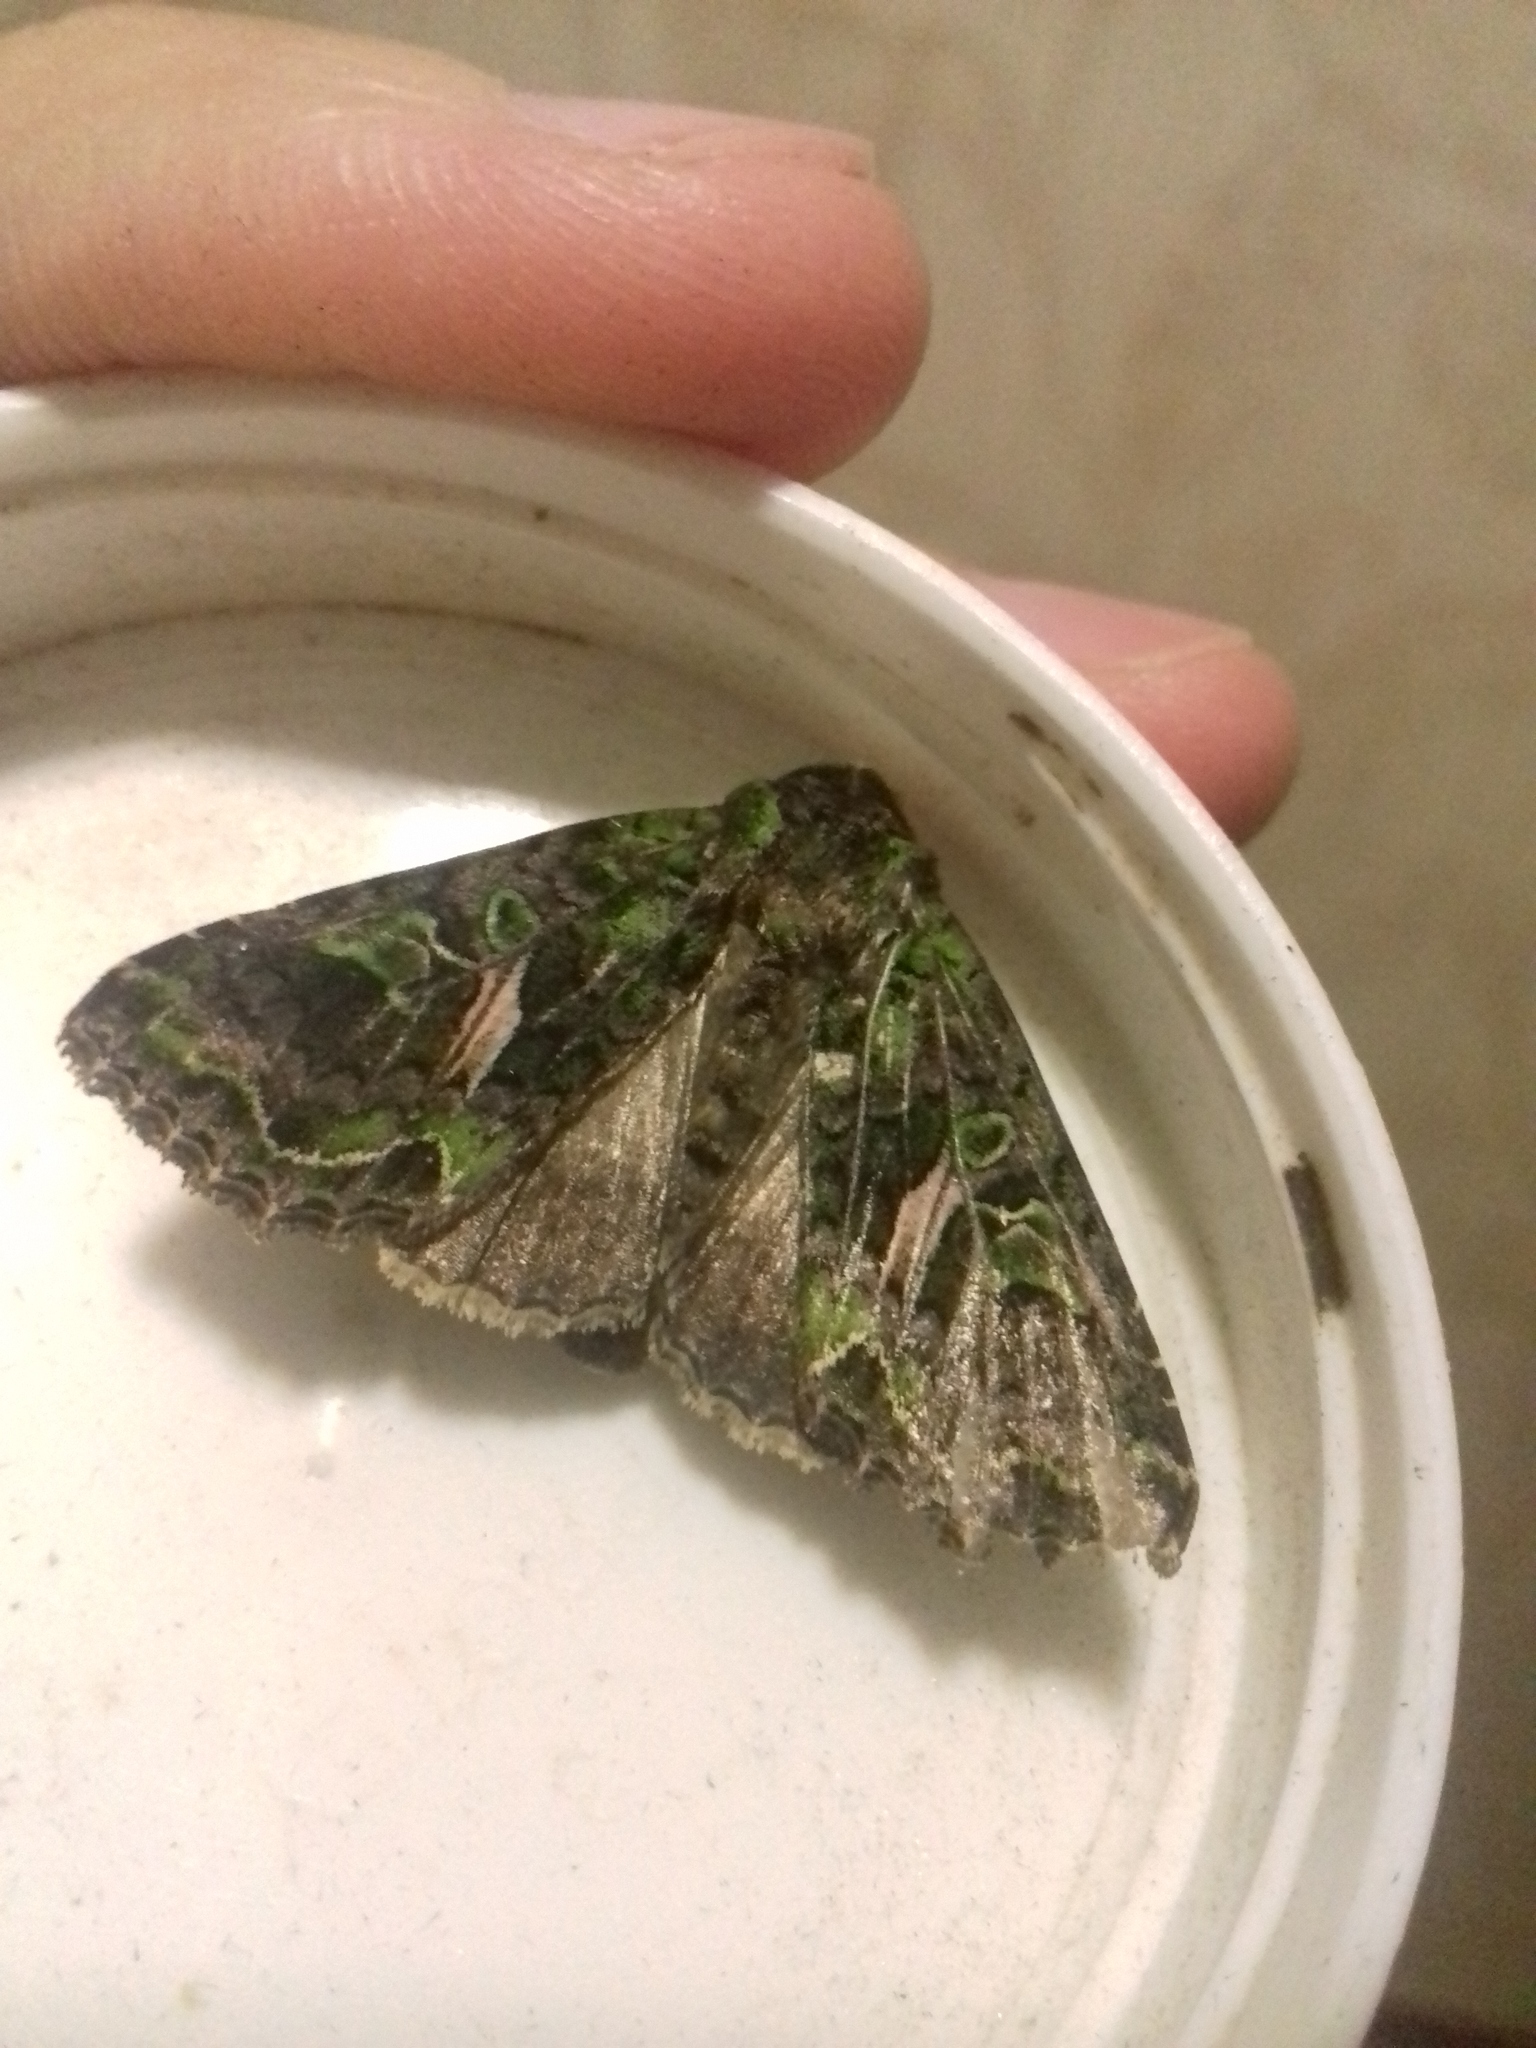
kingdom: Animalia
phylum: Arthropoda
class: Insecta
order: Lepidoptera
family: Noctuidae
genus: Trachea
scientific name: Trachea atriplicis
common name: Orache moth
